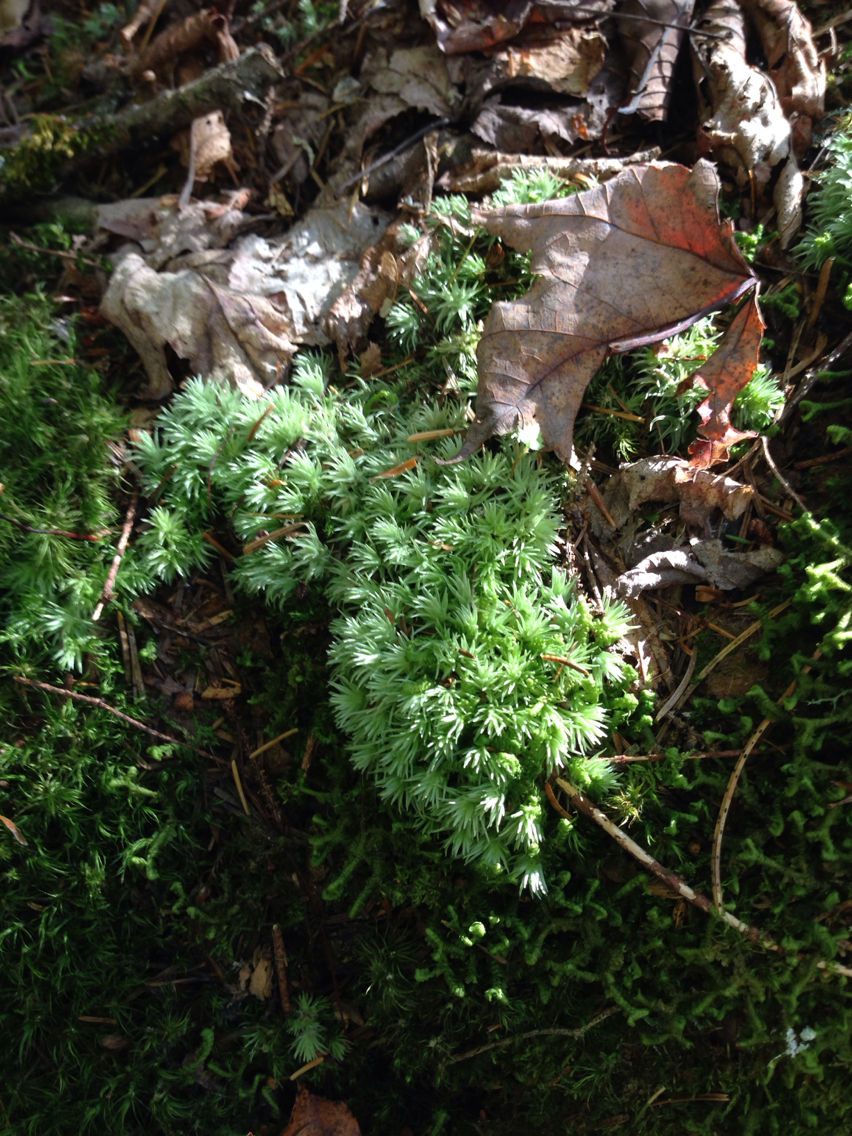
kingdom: Plantae
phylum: Bryophyta
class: Bryopsida
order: Dicranales
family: Leucobryaceae
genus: Leucobryum
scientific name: Leucobryum glaucum
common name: Large white-moss
